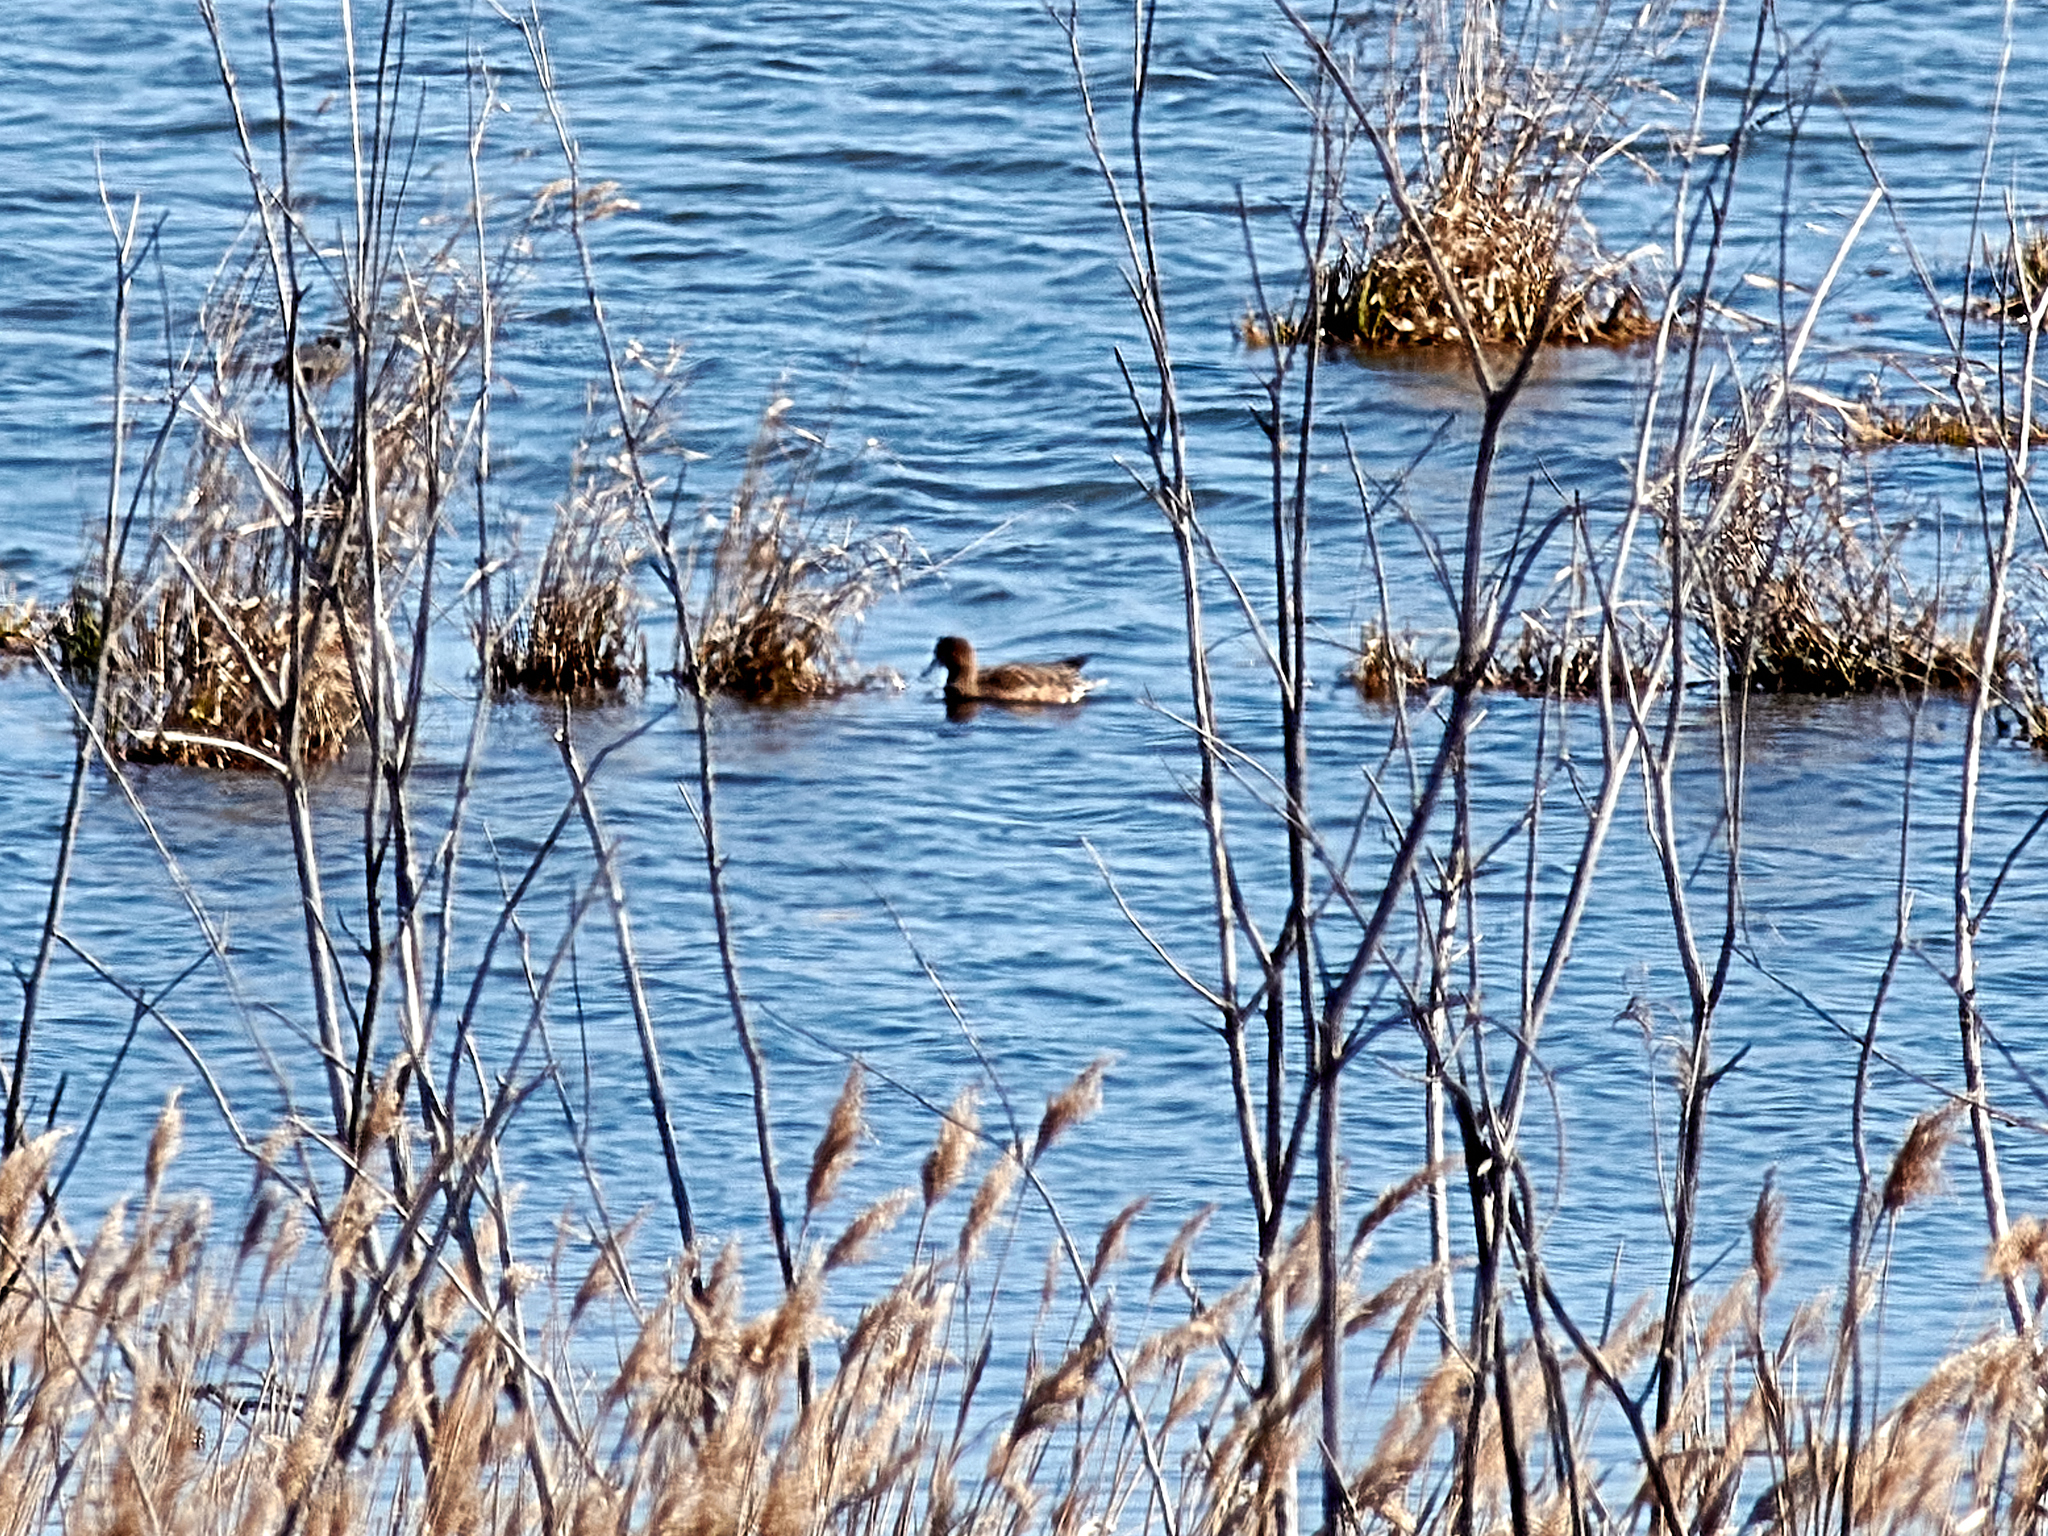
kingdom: Animalia
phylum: Chordata
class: Aves
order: Anseriformes
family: Anatidae
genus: Mareca
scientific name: Mareca penelope
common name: Eurasian wigeon
